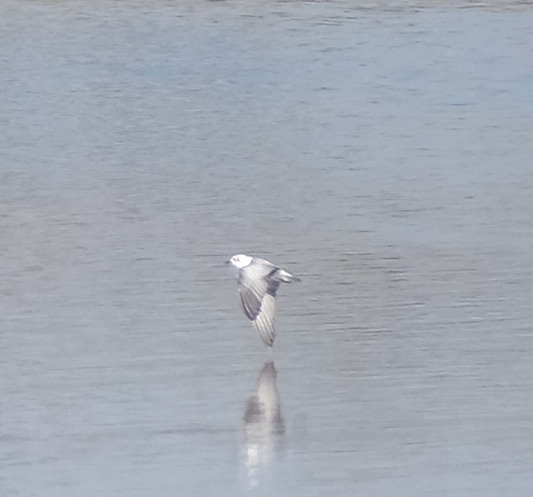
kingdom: Animalia
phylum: Chordata
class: Aves
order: Charadriiformes
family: Laridae
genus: Chlidonias
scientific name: Chlidonias leucopterus
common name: White-winged tern
